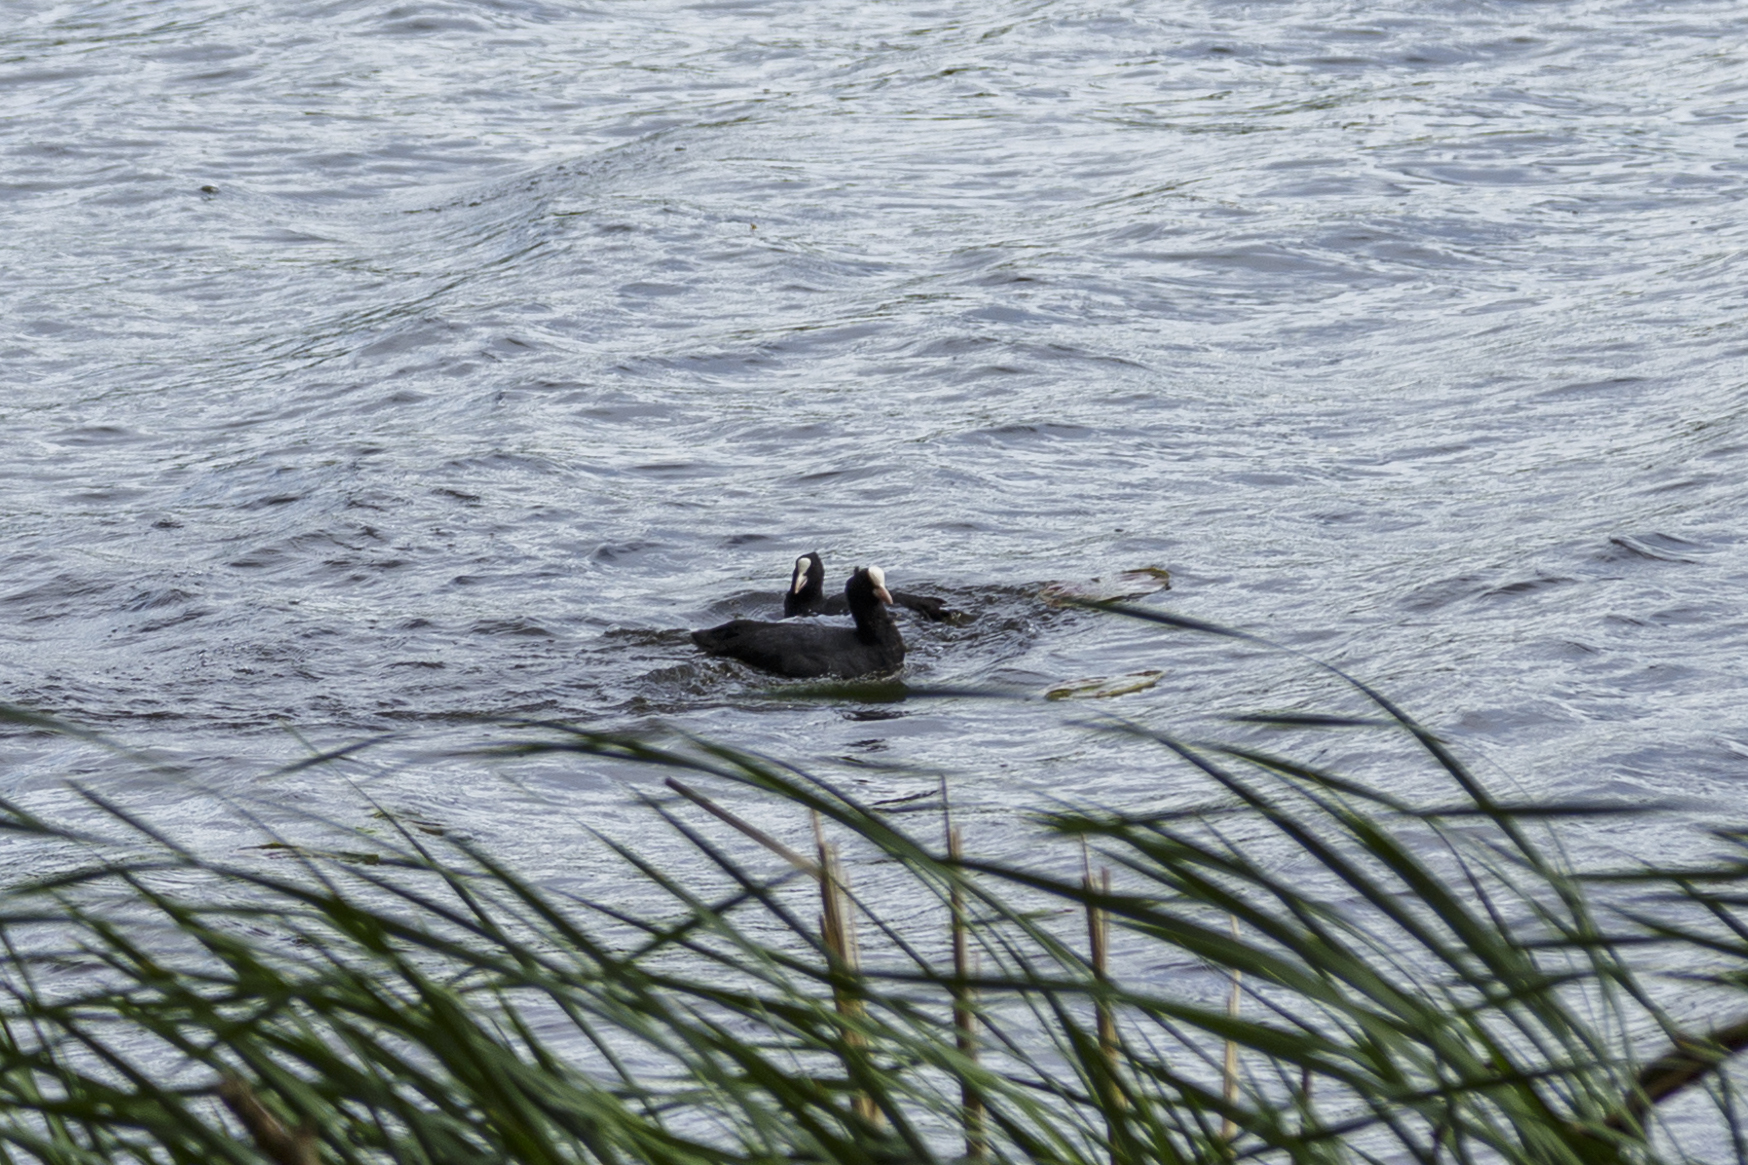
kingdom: Animalia
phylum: Chordata
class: Aves
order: Gruiformes
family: Rallidae
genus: Fulica
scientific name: Fulica atra
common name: Eurasian coot
